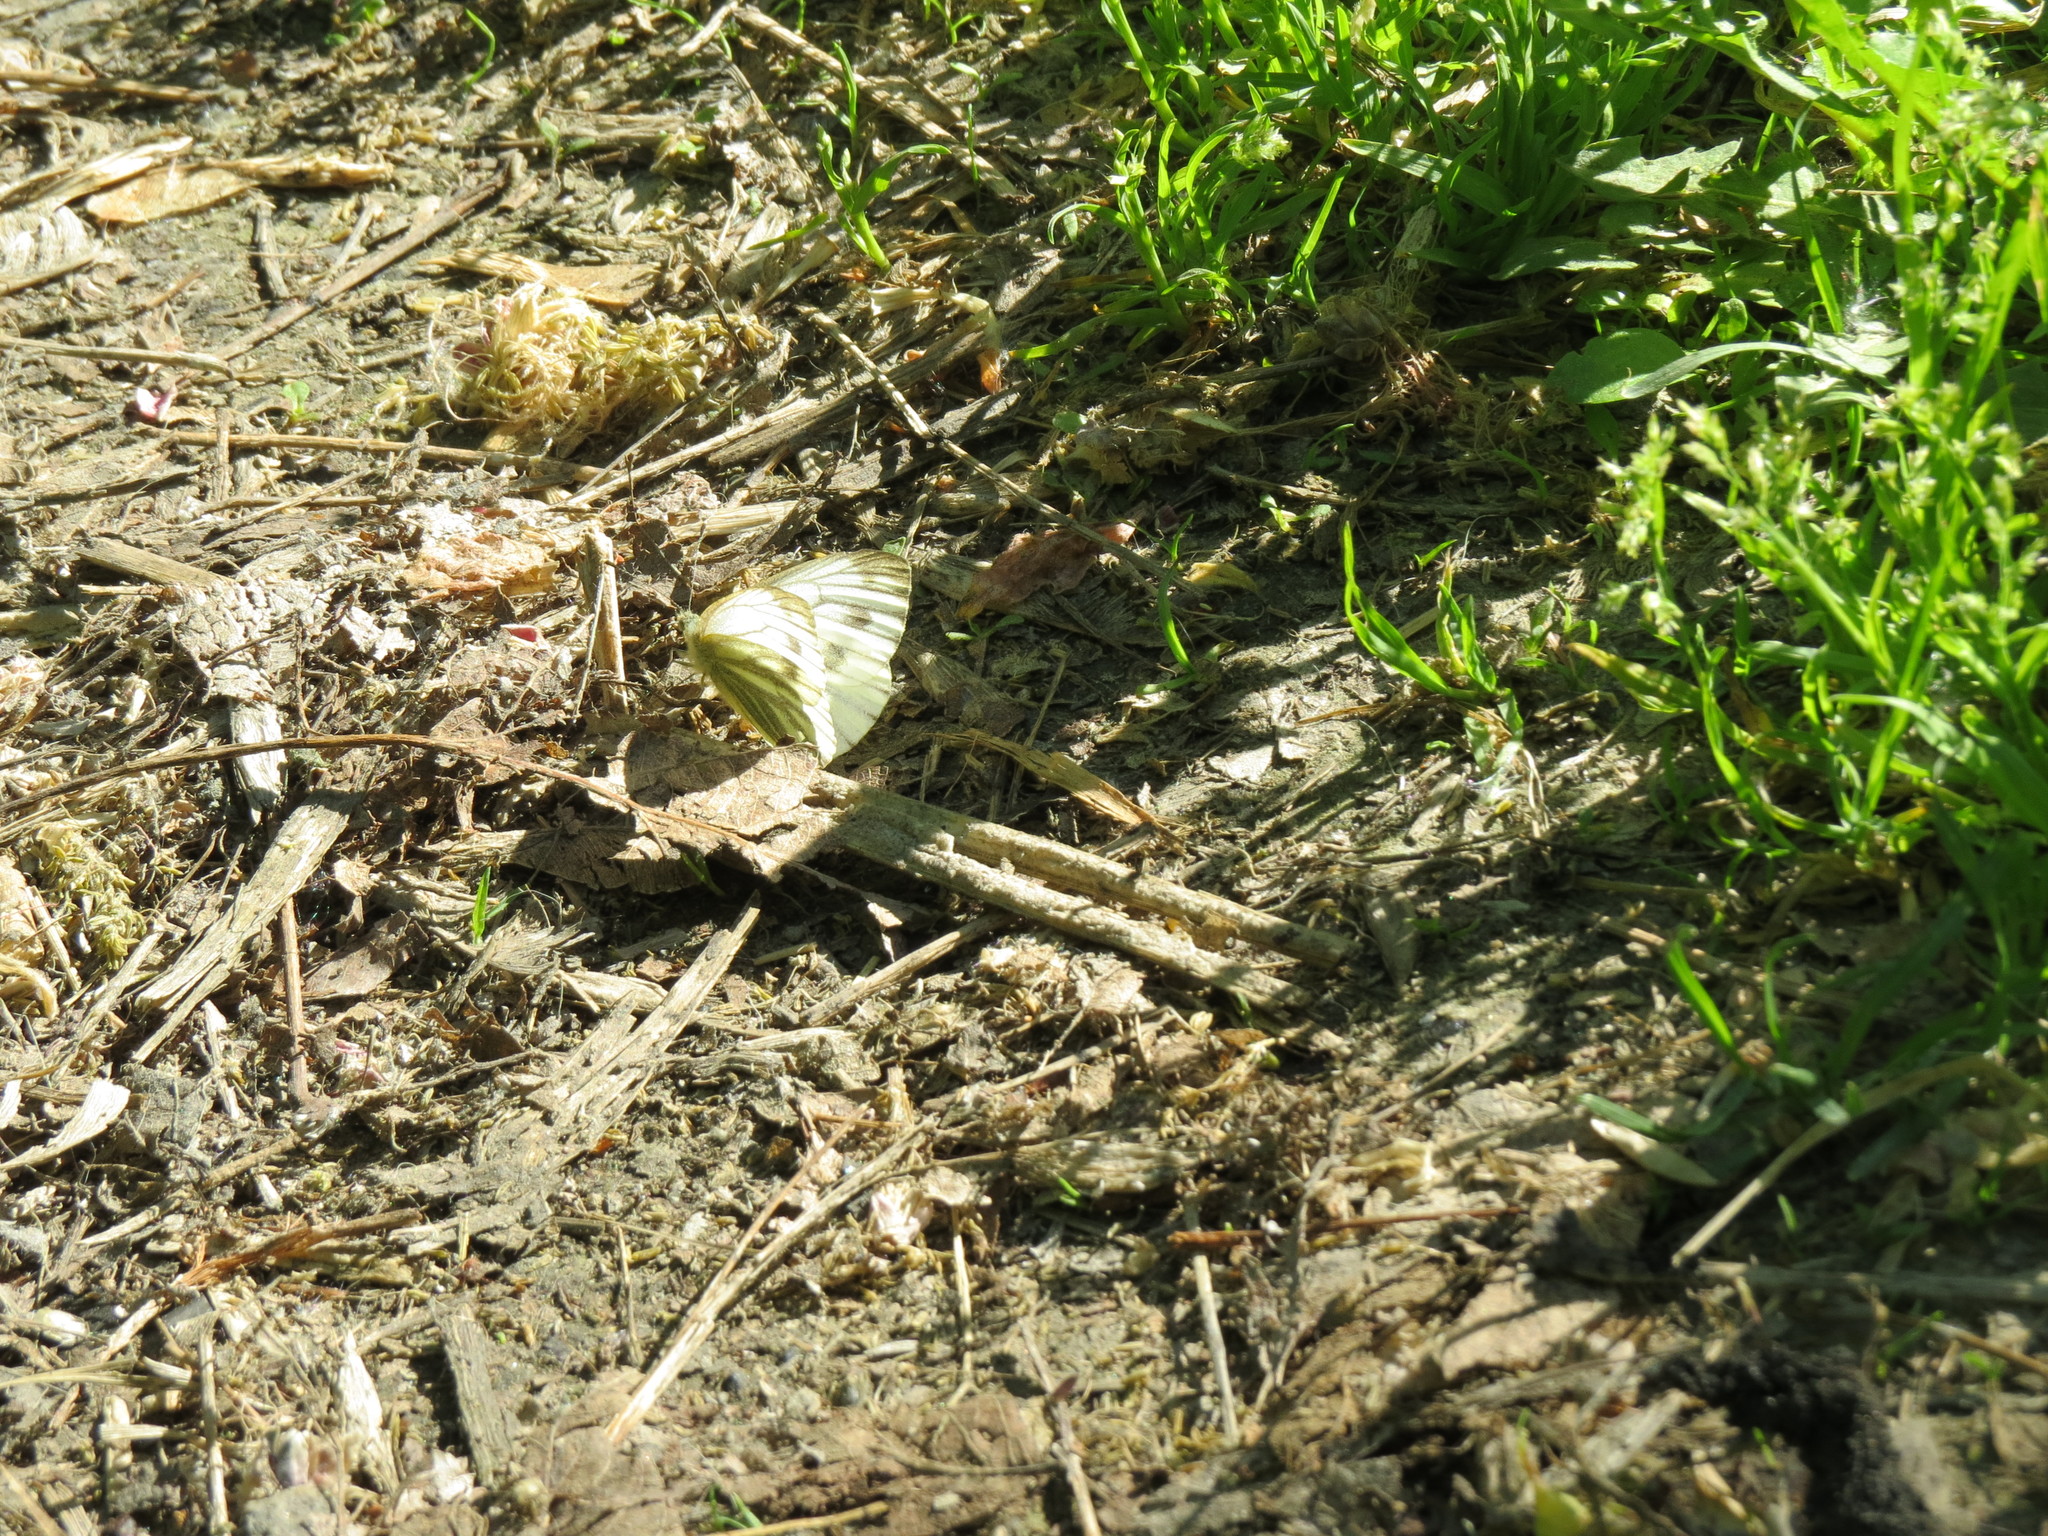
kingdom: Animalia
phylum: Arthropoda
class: Insecta
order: Lepidoptera
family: Pieridae
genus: Pieris
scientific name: Pieris napi
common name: Green-veined white
